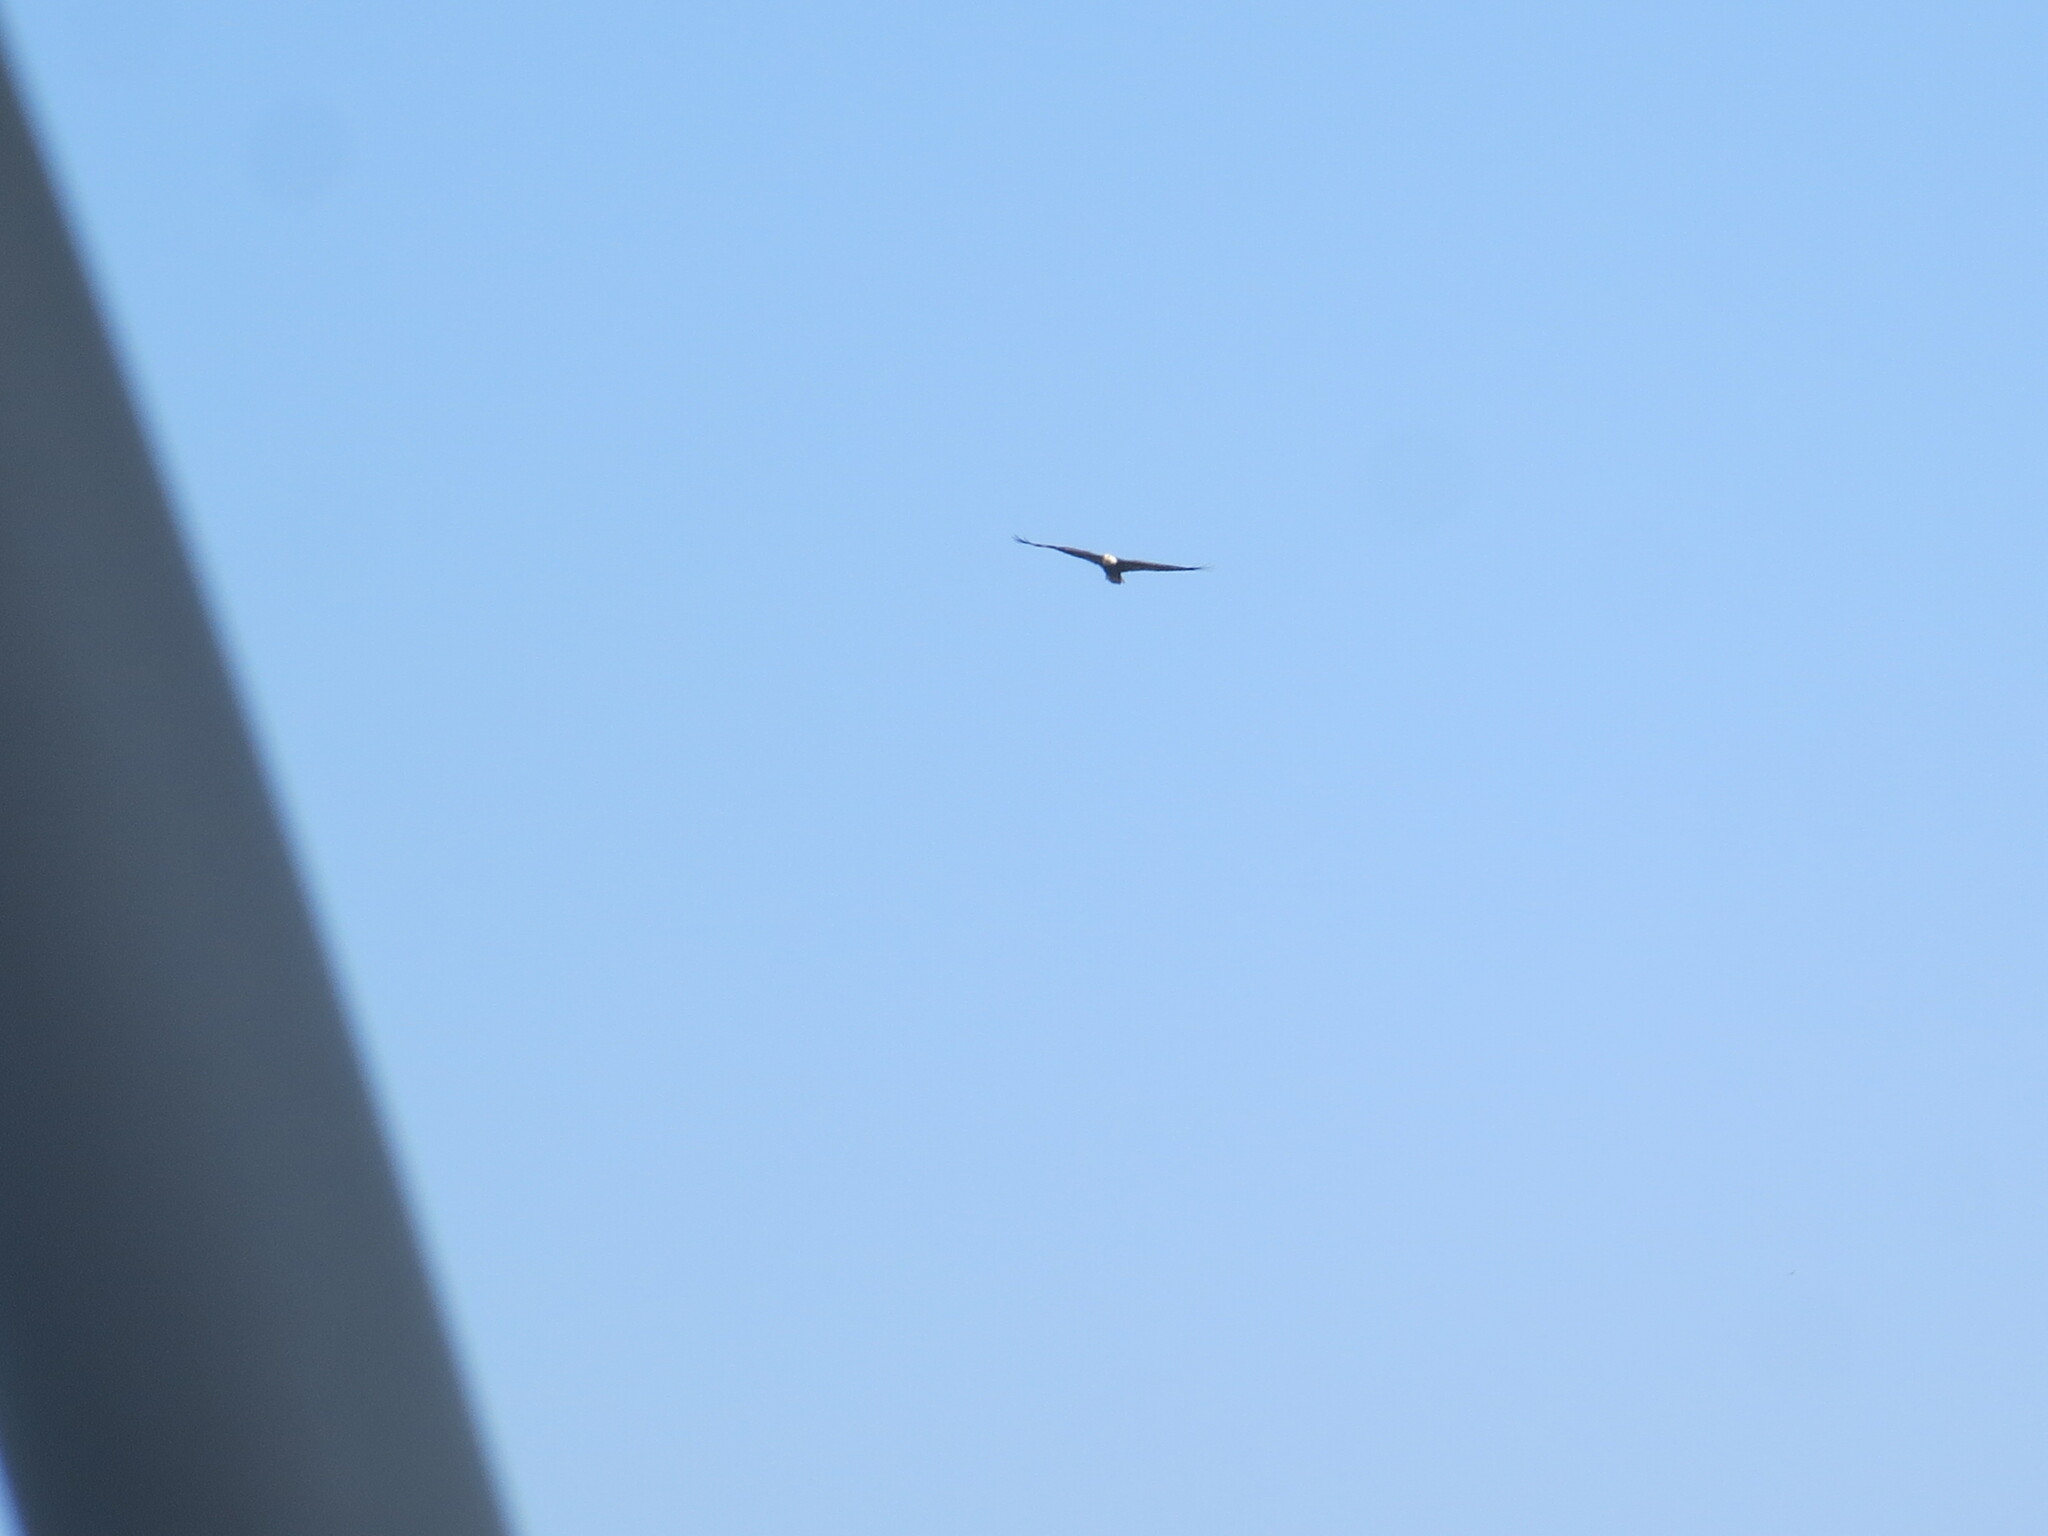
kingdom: Animalia
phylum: Chordata
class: Aves
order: Accipitriformes
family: Accipitridae
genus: Haliaeetus
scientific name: Haliaeetus leucocephalus
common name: Bald eagle
